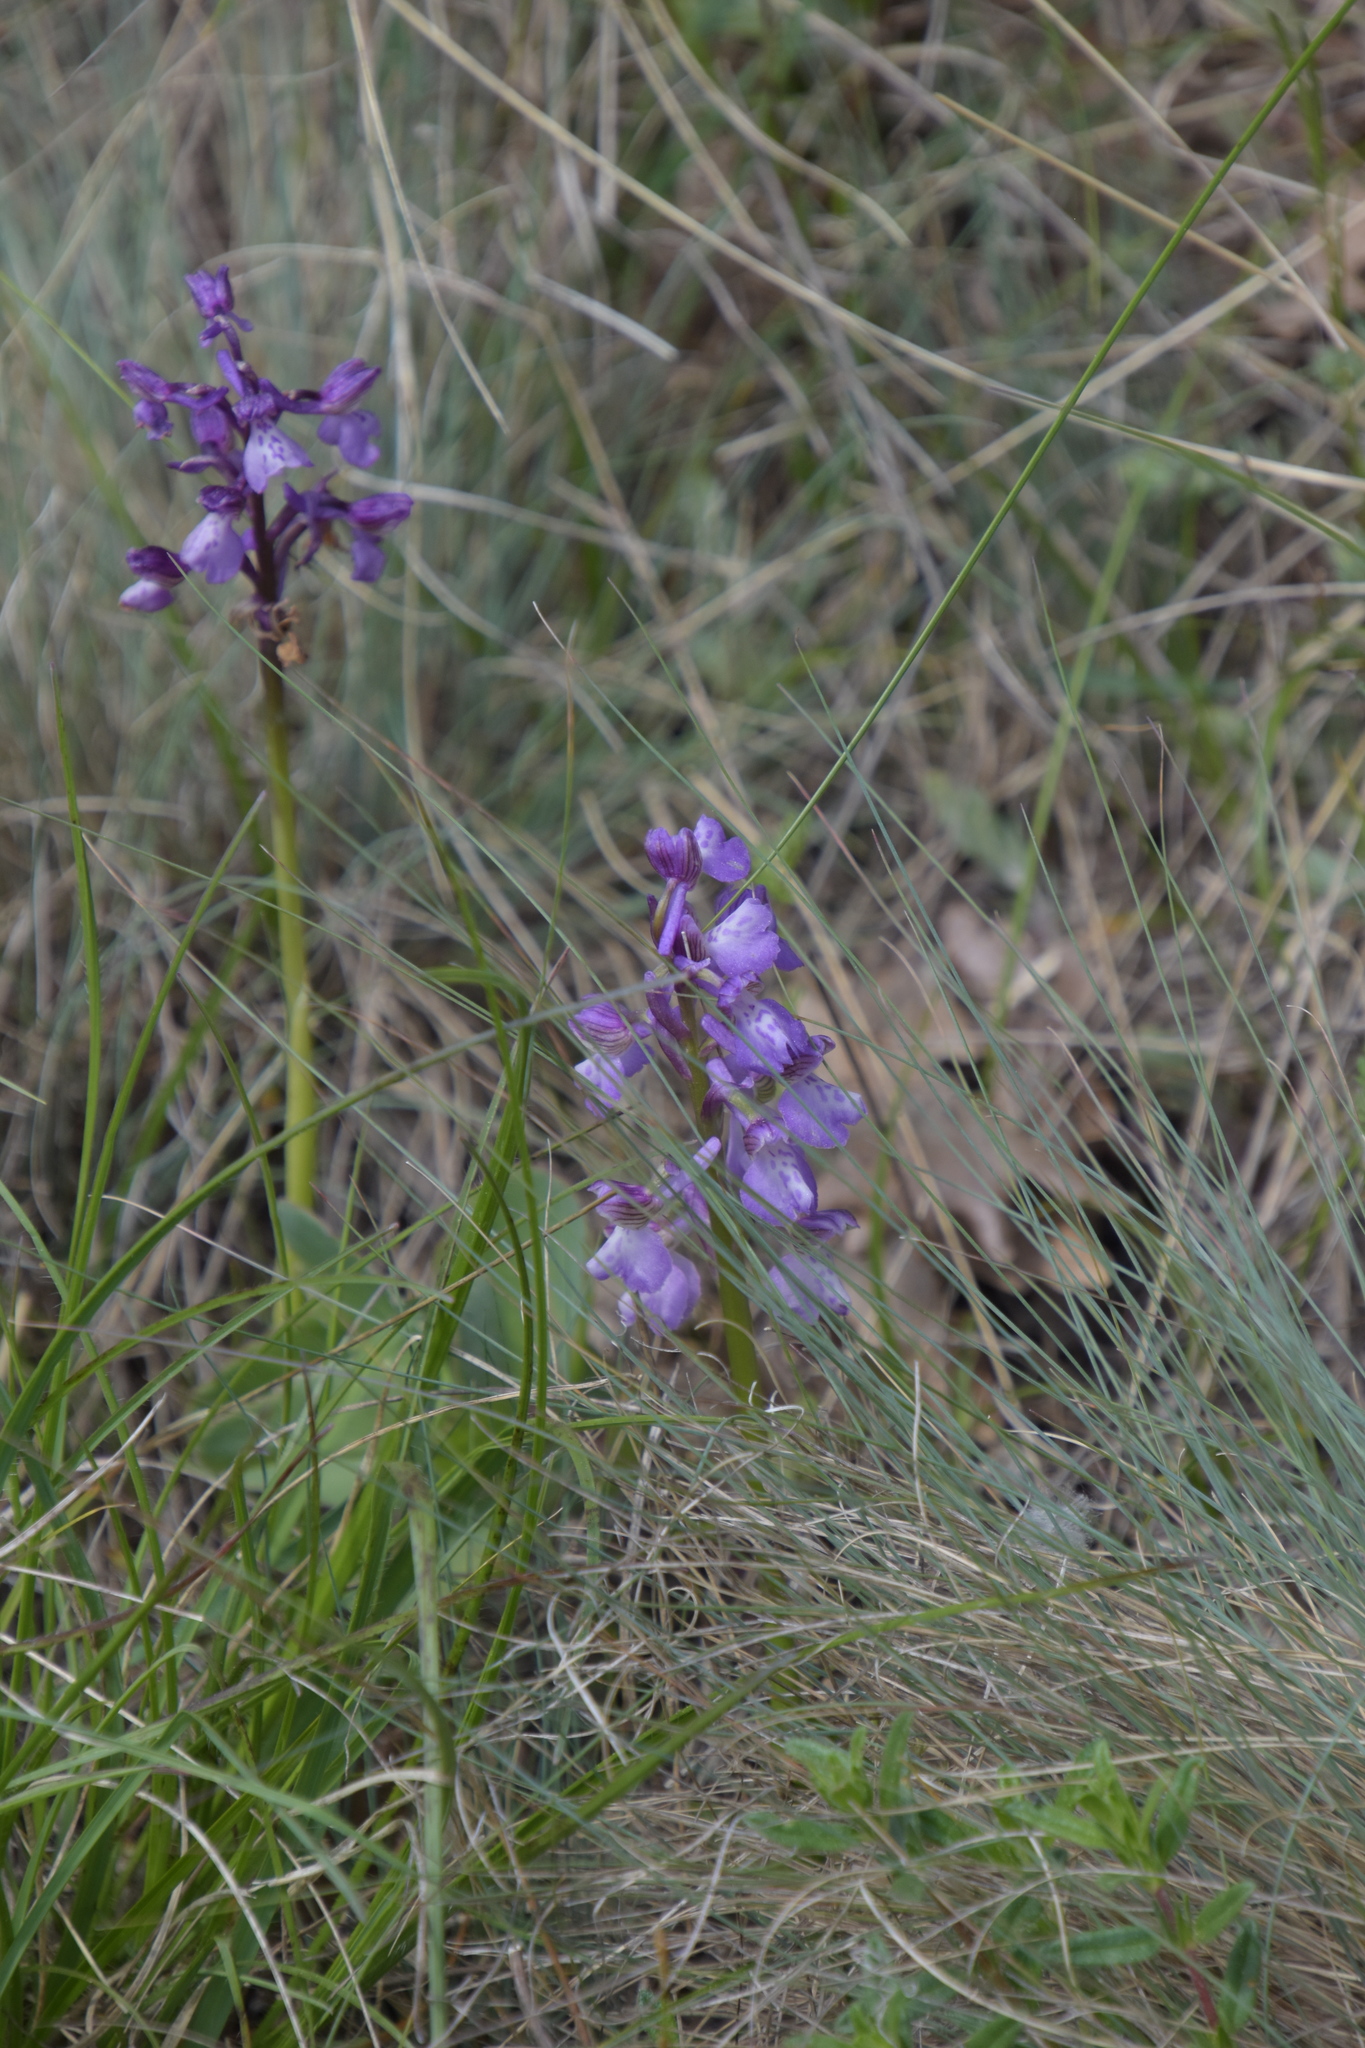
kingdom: Plantae
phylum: Tracheophyta
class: Liliopsida
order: Asparagales
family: Orchidaceae
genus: Anacamptis
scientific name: Anacamptis morio
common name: Green-winged orchid
